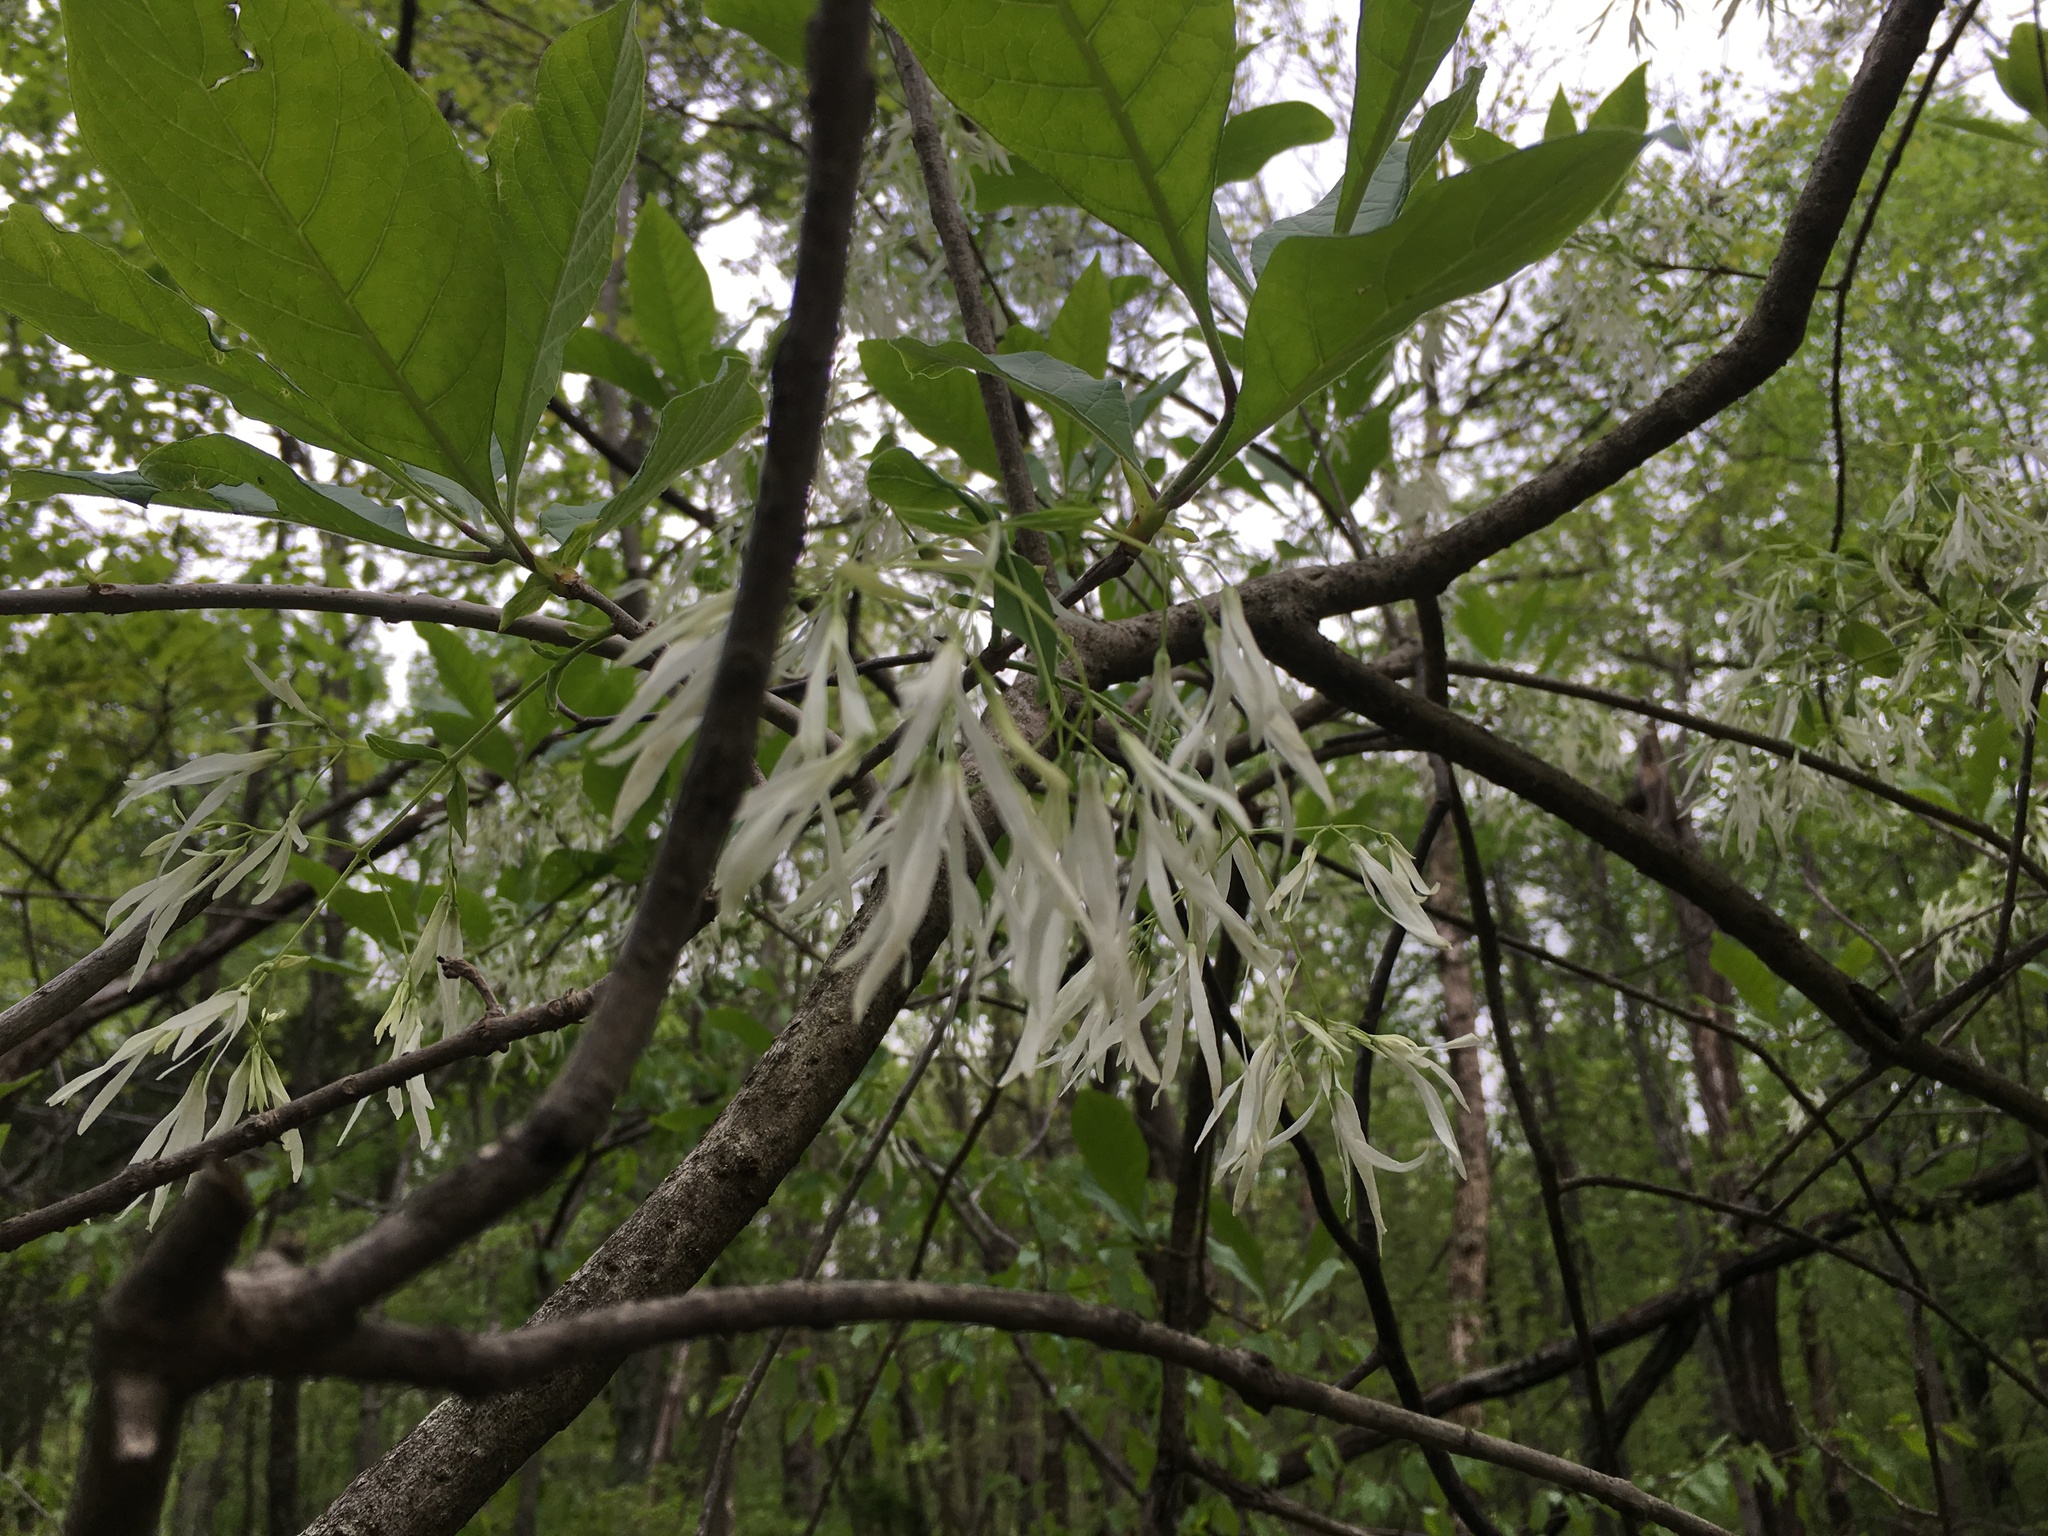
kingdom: Plantae
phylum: Tracheophyta
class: Magnoliopsida
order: Lamiales
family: Oleaceae
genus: Chionanthus
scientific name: Chionanthus virginicus
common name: American fringetree
